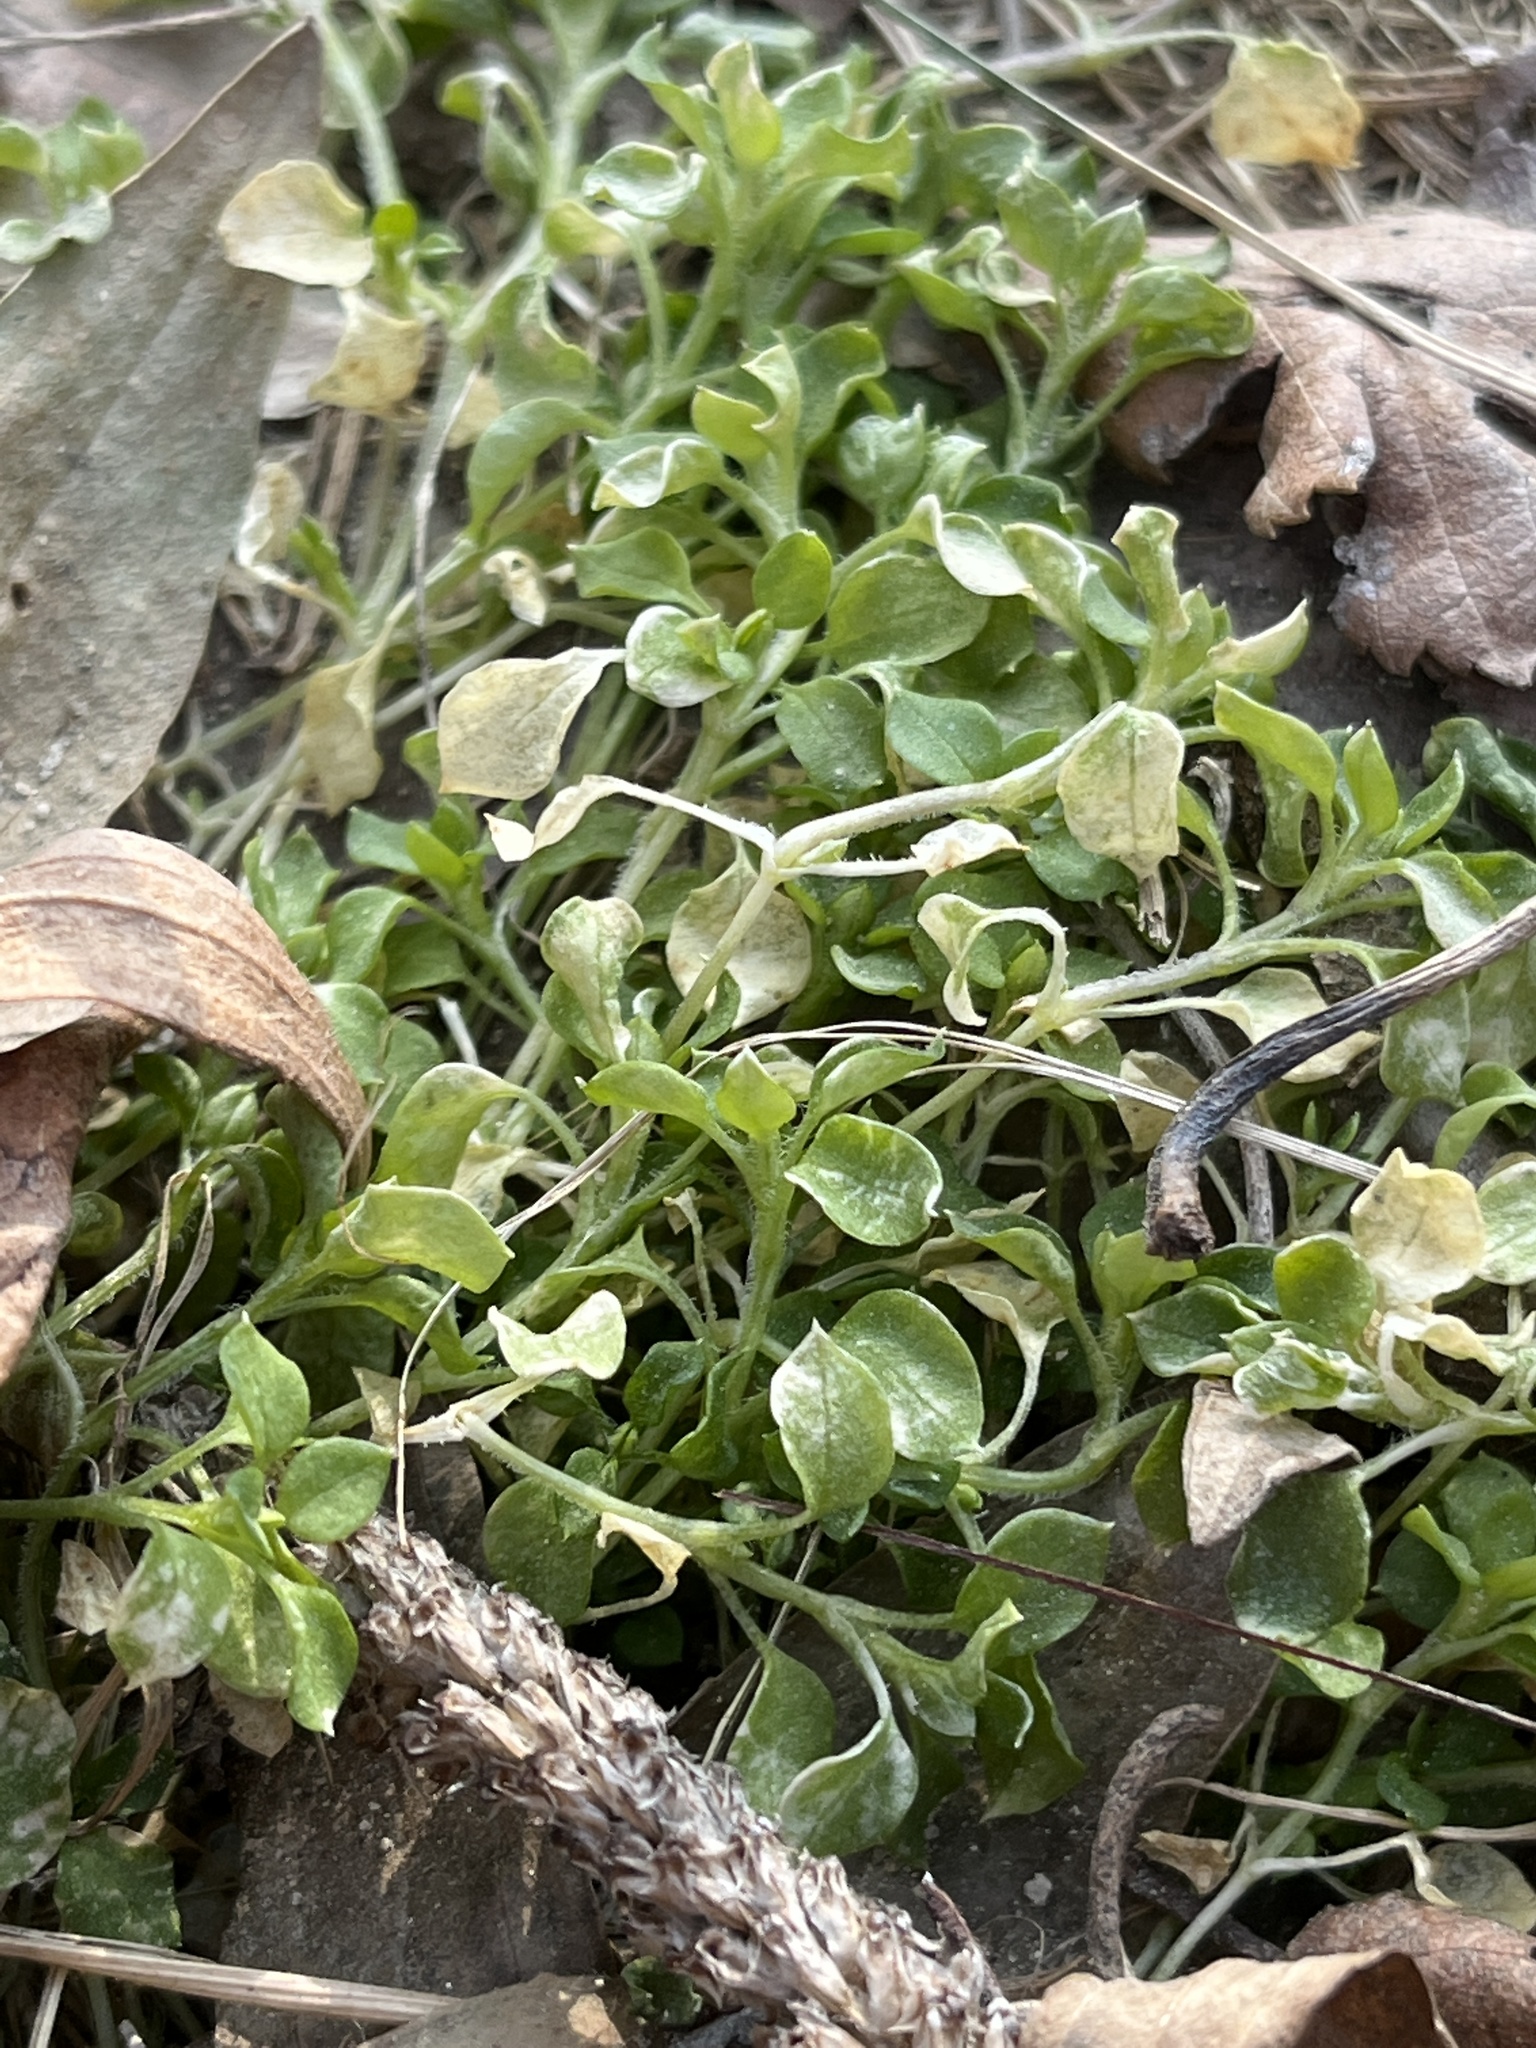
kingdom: Plantae
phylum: Tracheophyta
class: Magnoliopsida
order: Caryophyllales
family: Caryophyllaceae
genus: Stellaria
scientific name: Stellaria media
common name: Common chickweed
